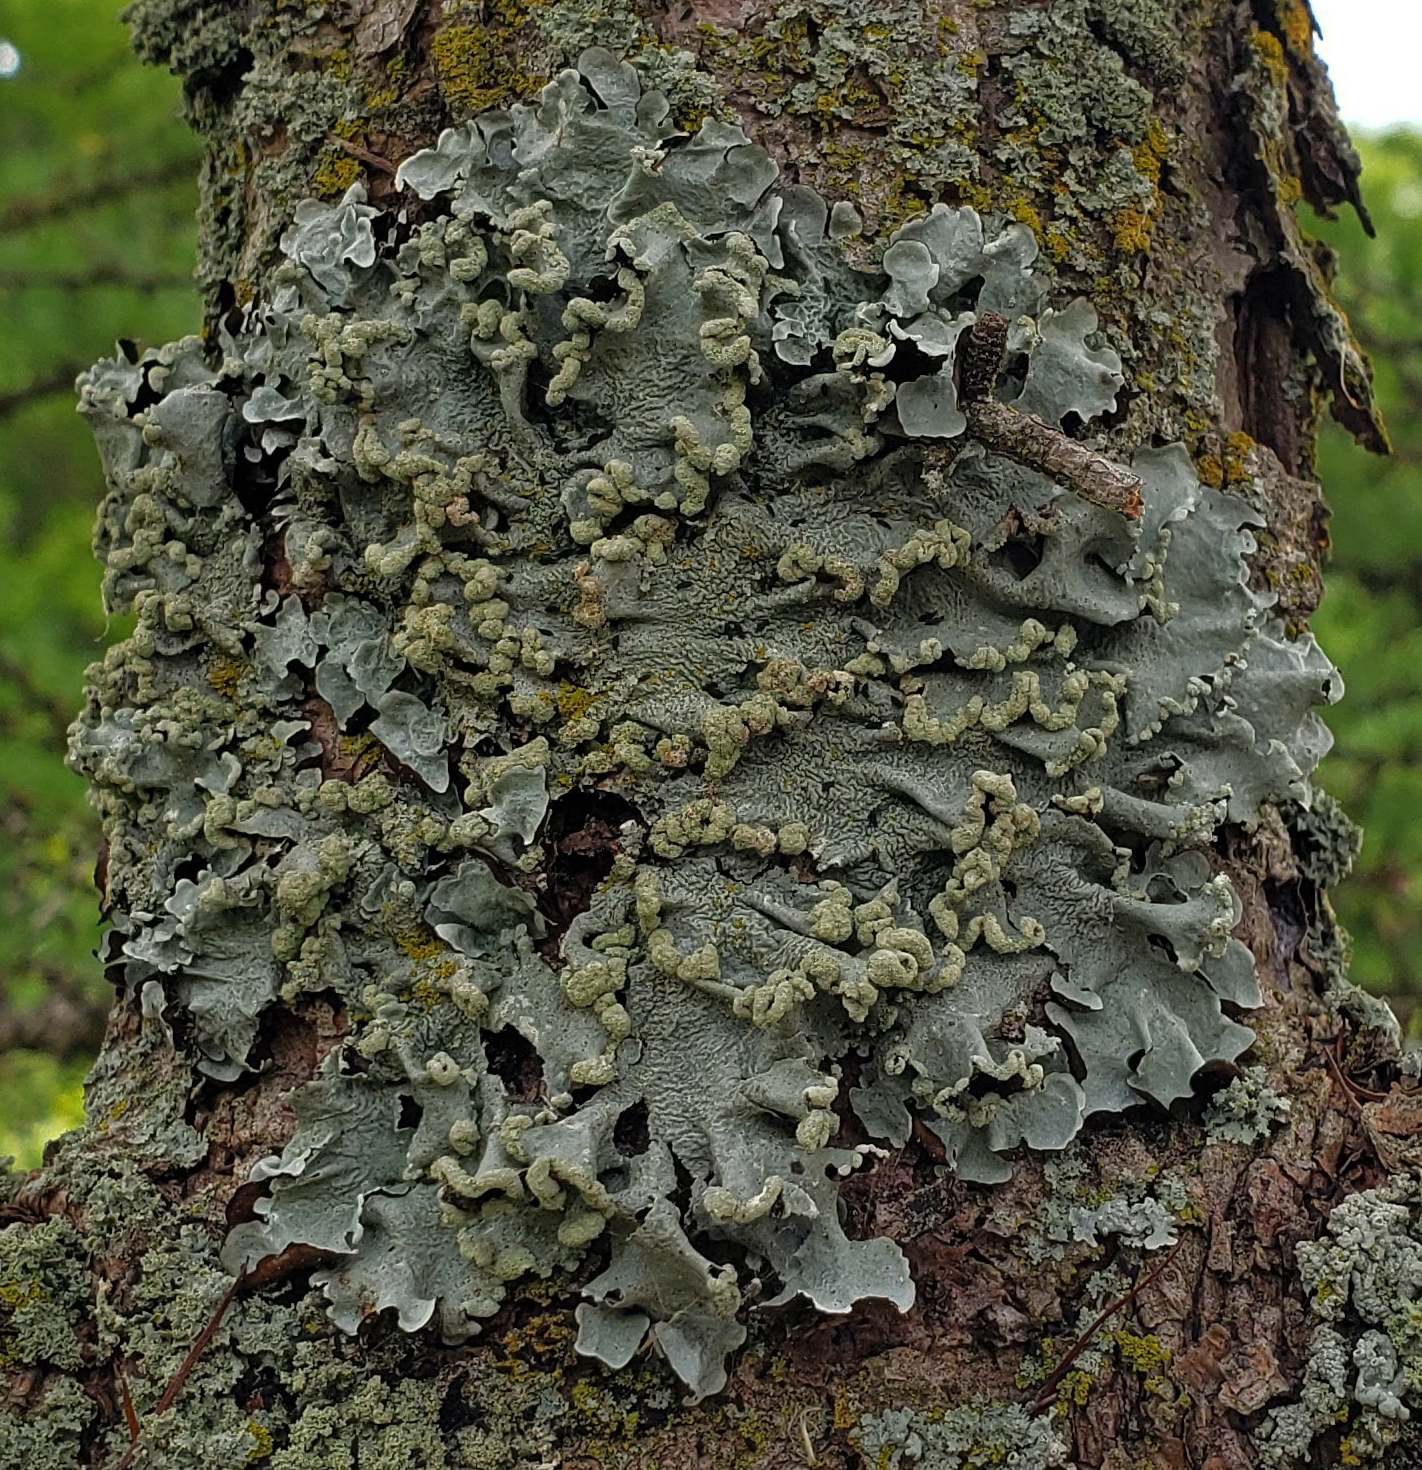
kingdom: Fungi
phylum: Ascomycota
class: Lecanoromycetes
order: Lecanorales
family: Parmeliaceae
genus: Flavopunctelia
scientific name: Flavopunctelia soredica
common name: Powder-edged speckled greenshield
